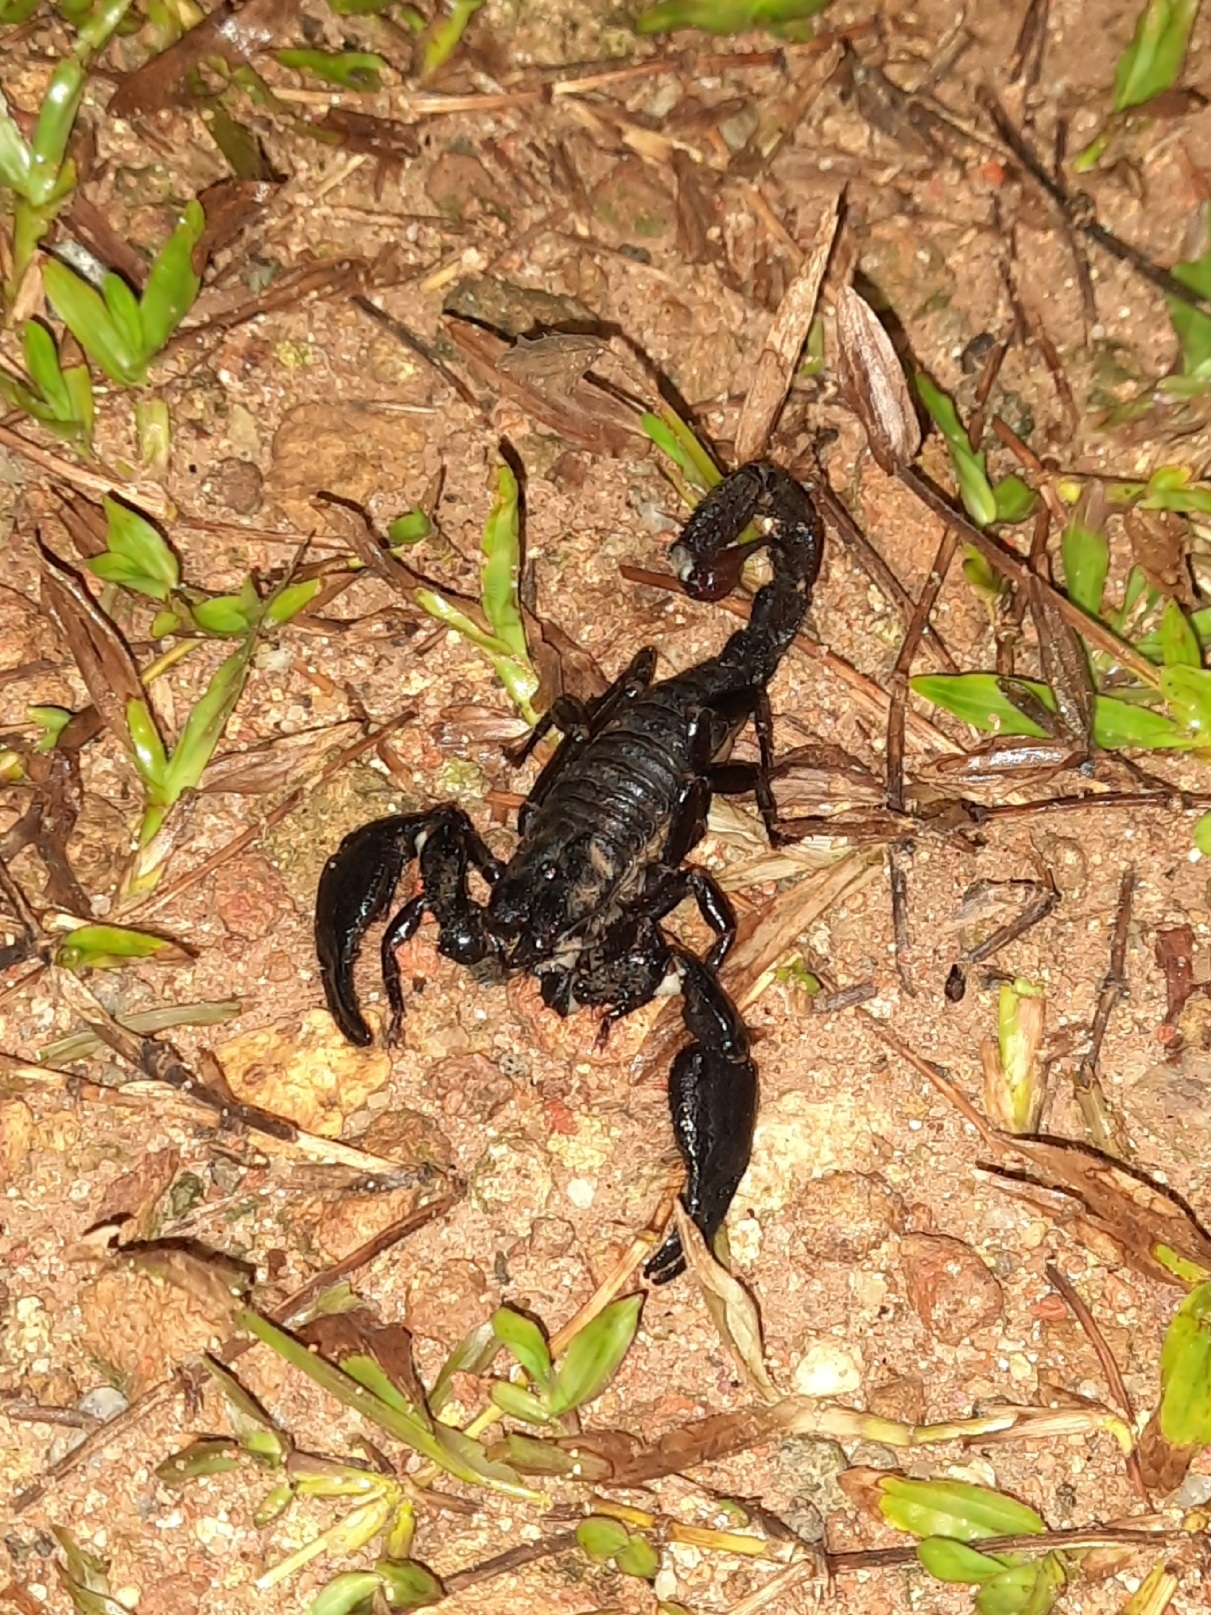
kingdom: Animalia
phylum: Arthropoda
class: Arachnida
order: Scorpiones
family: Scorpionidae
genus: Deccanometrus
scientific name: Deccanometrus bengalensis
